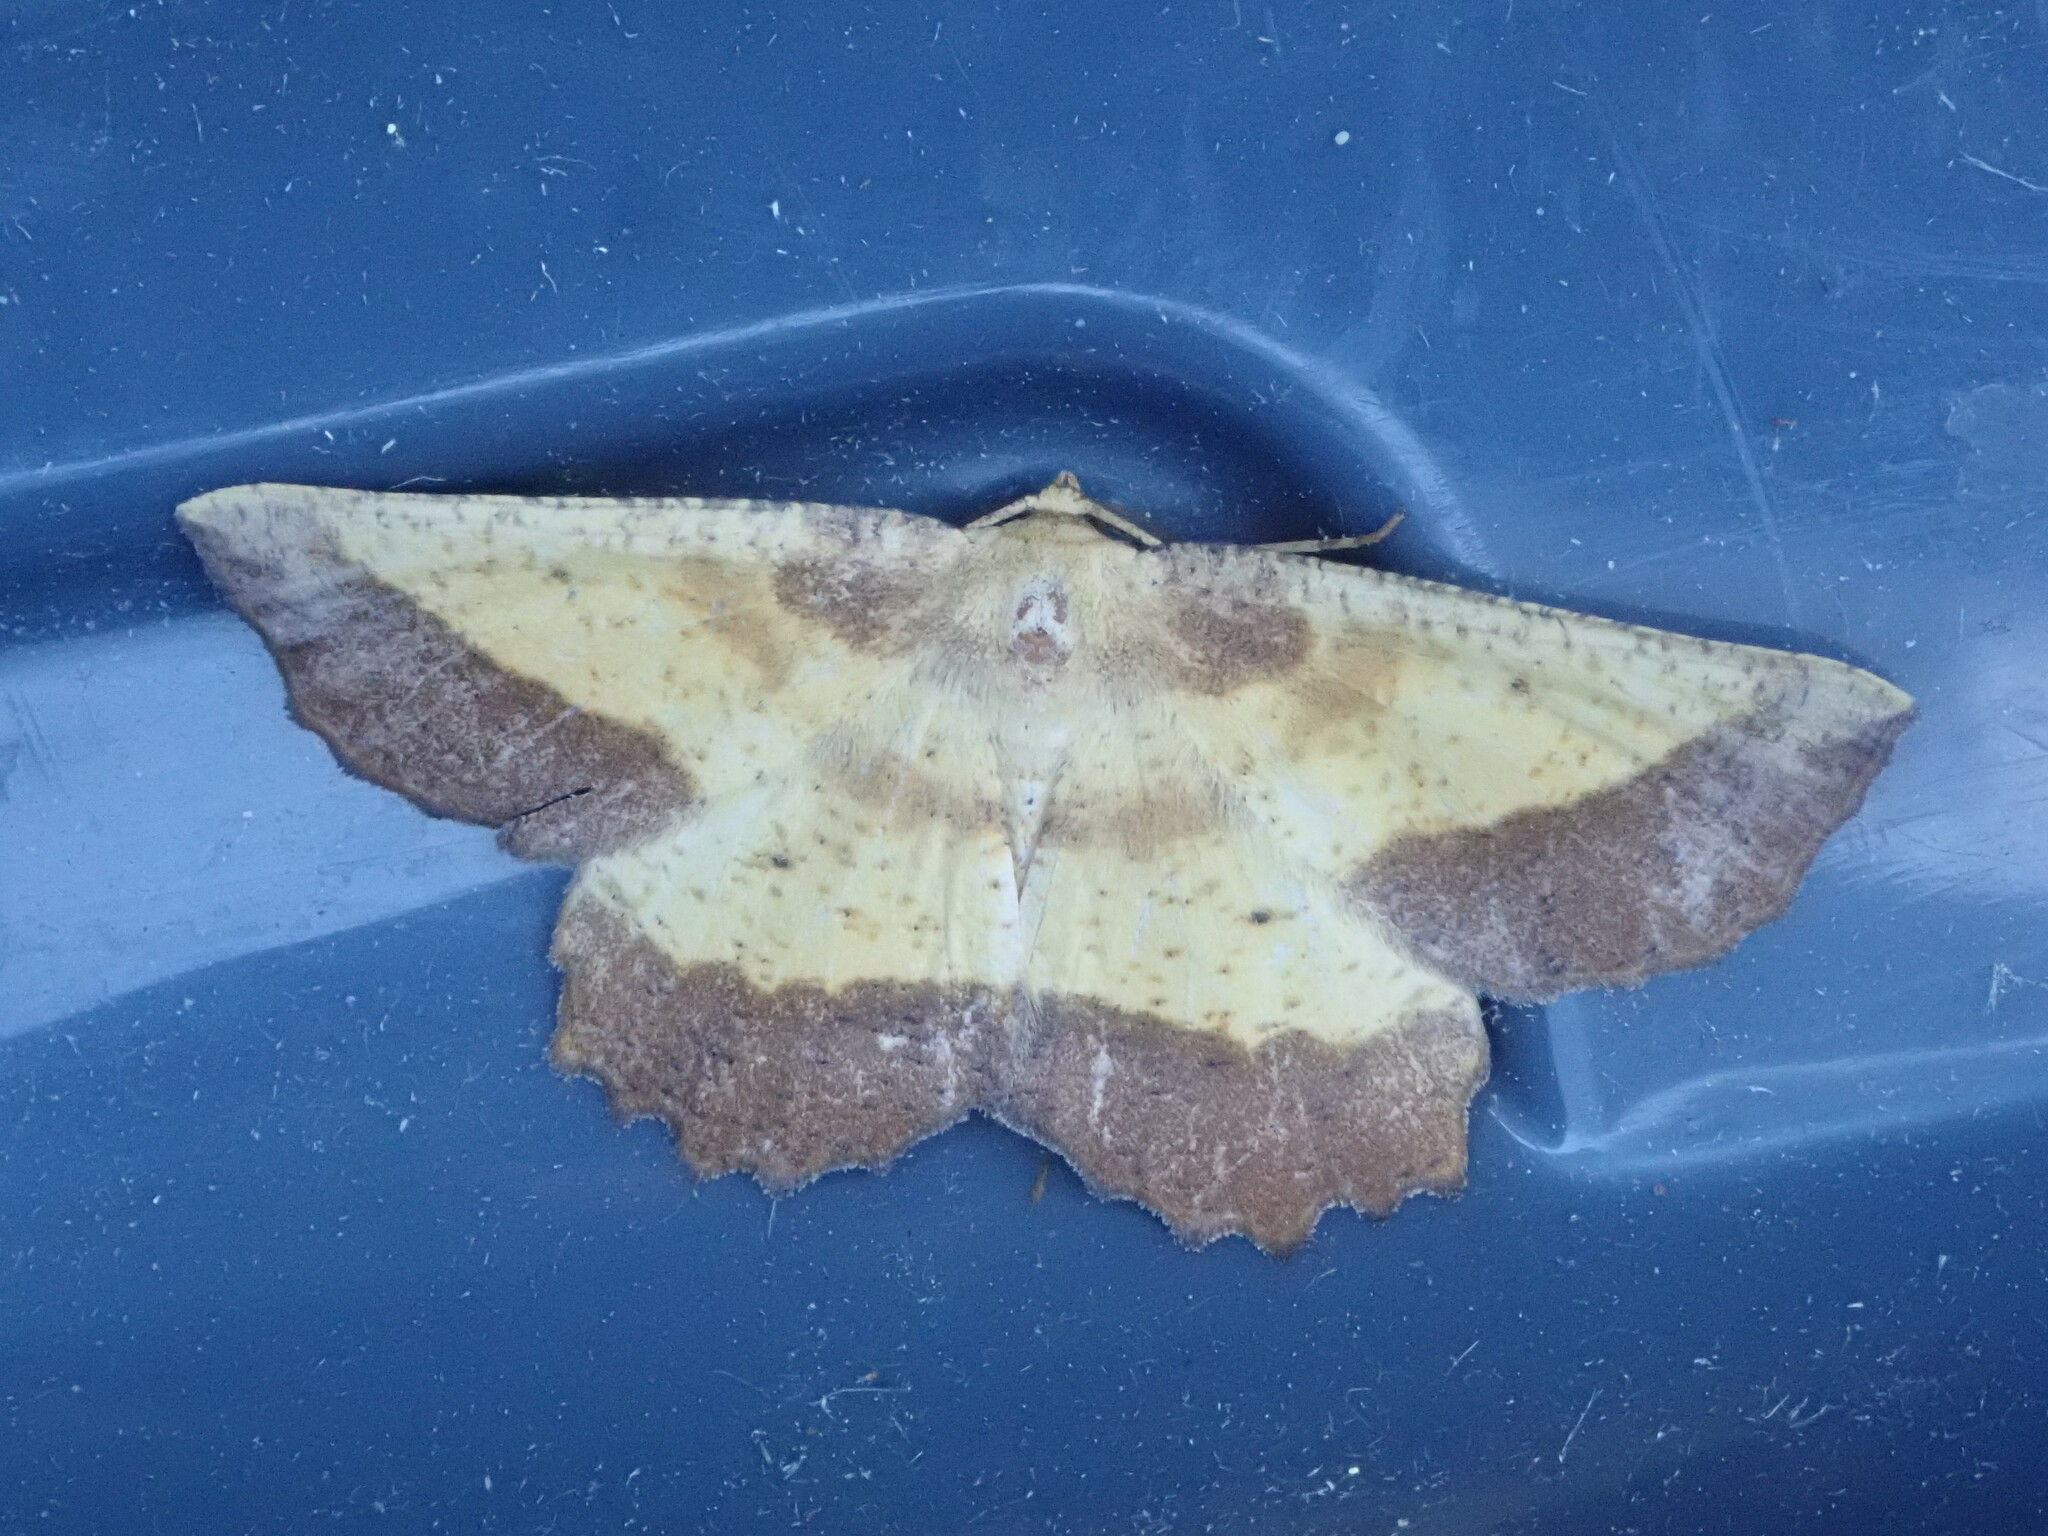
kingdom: Animalia
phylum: Arthropoda
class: Insecta
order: Lepidoptera
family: Geometridae
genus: Euchlaena
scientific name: Euchlaena serrata
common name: Saw wing
